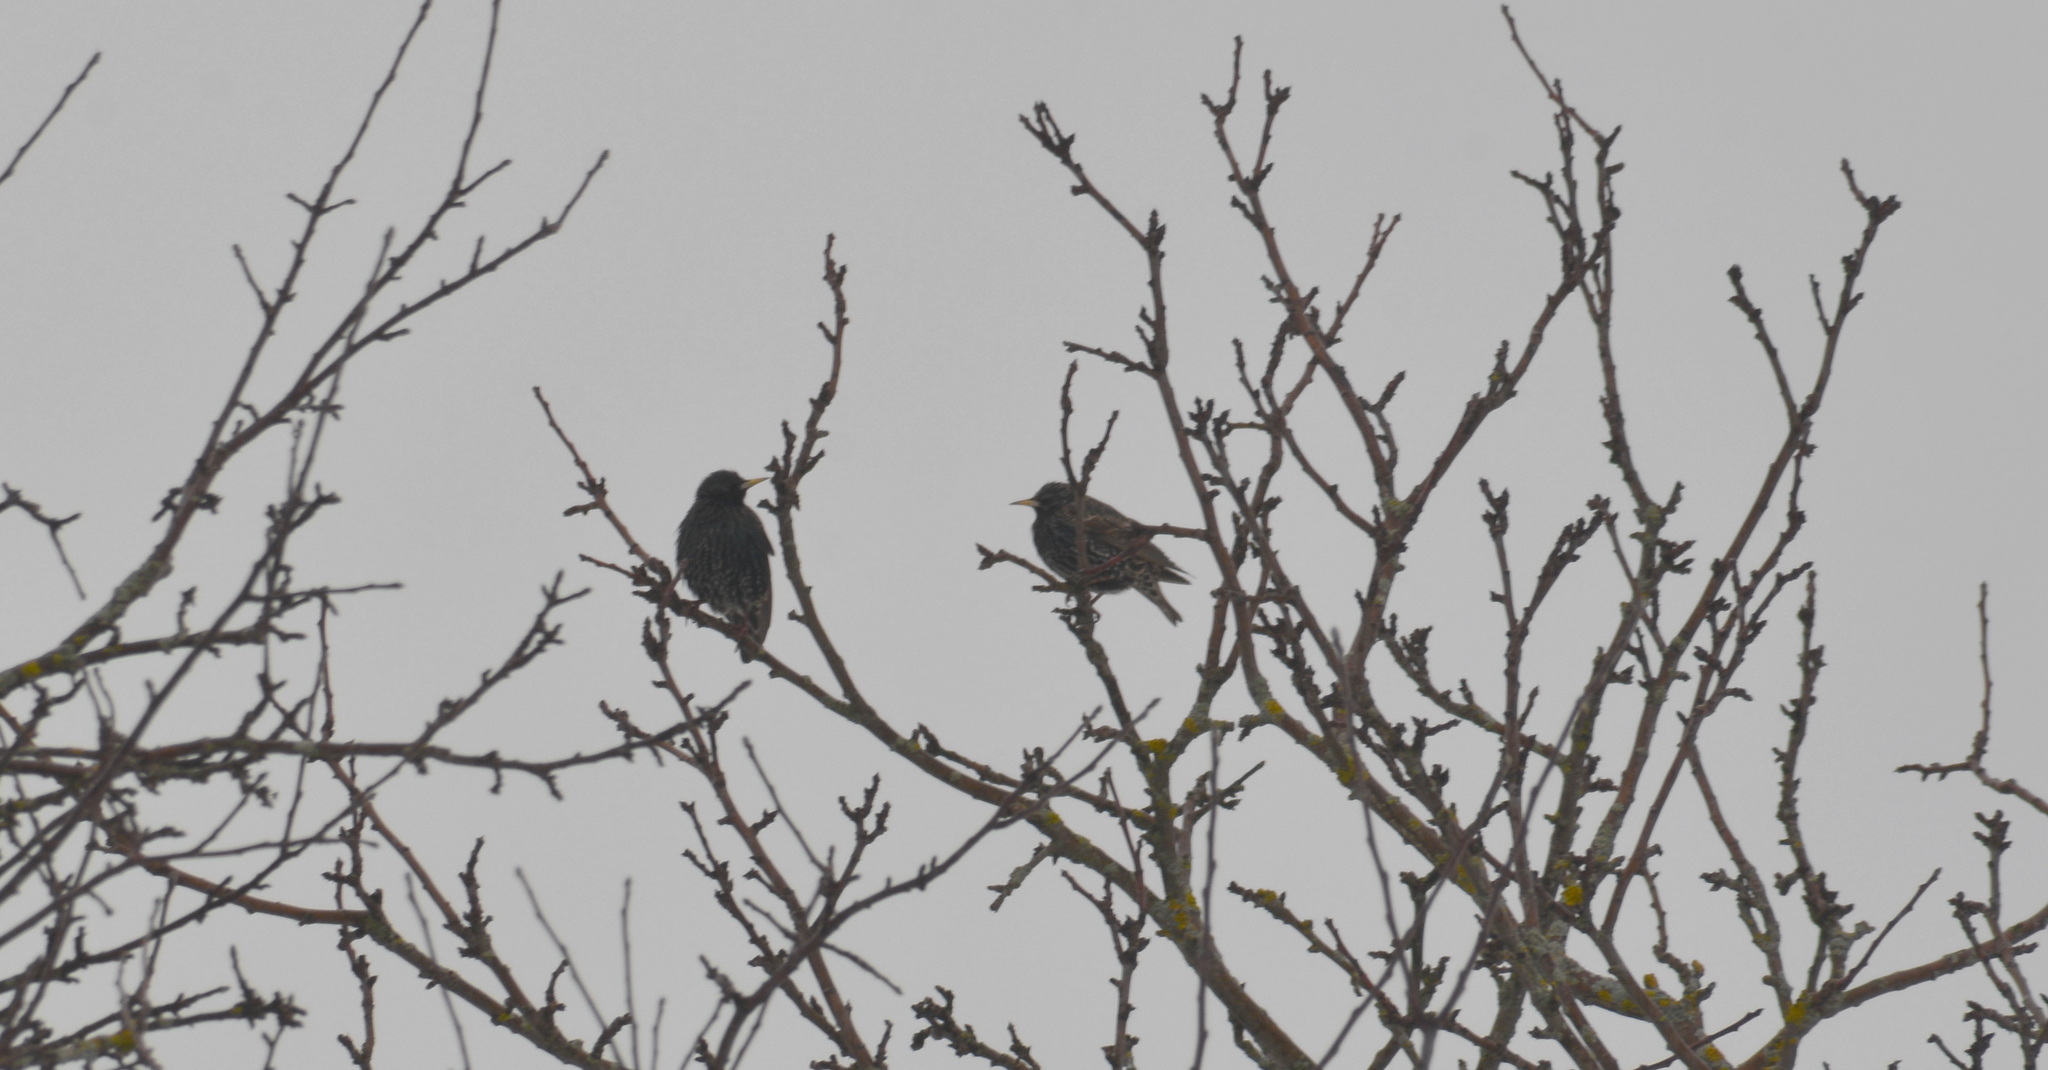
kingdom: Animalia
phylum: Chordata
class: Aves
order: Passeriformes
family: Sturnidae
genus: Sturnus
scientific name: Sturnus vulgaris
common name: Common starling
